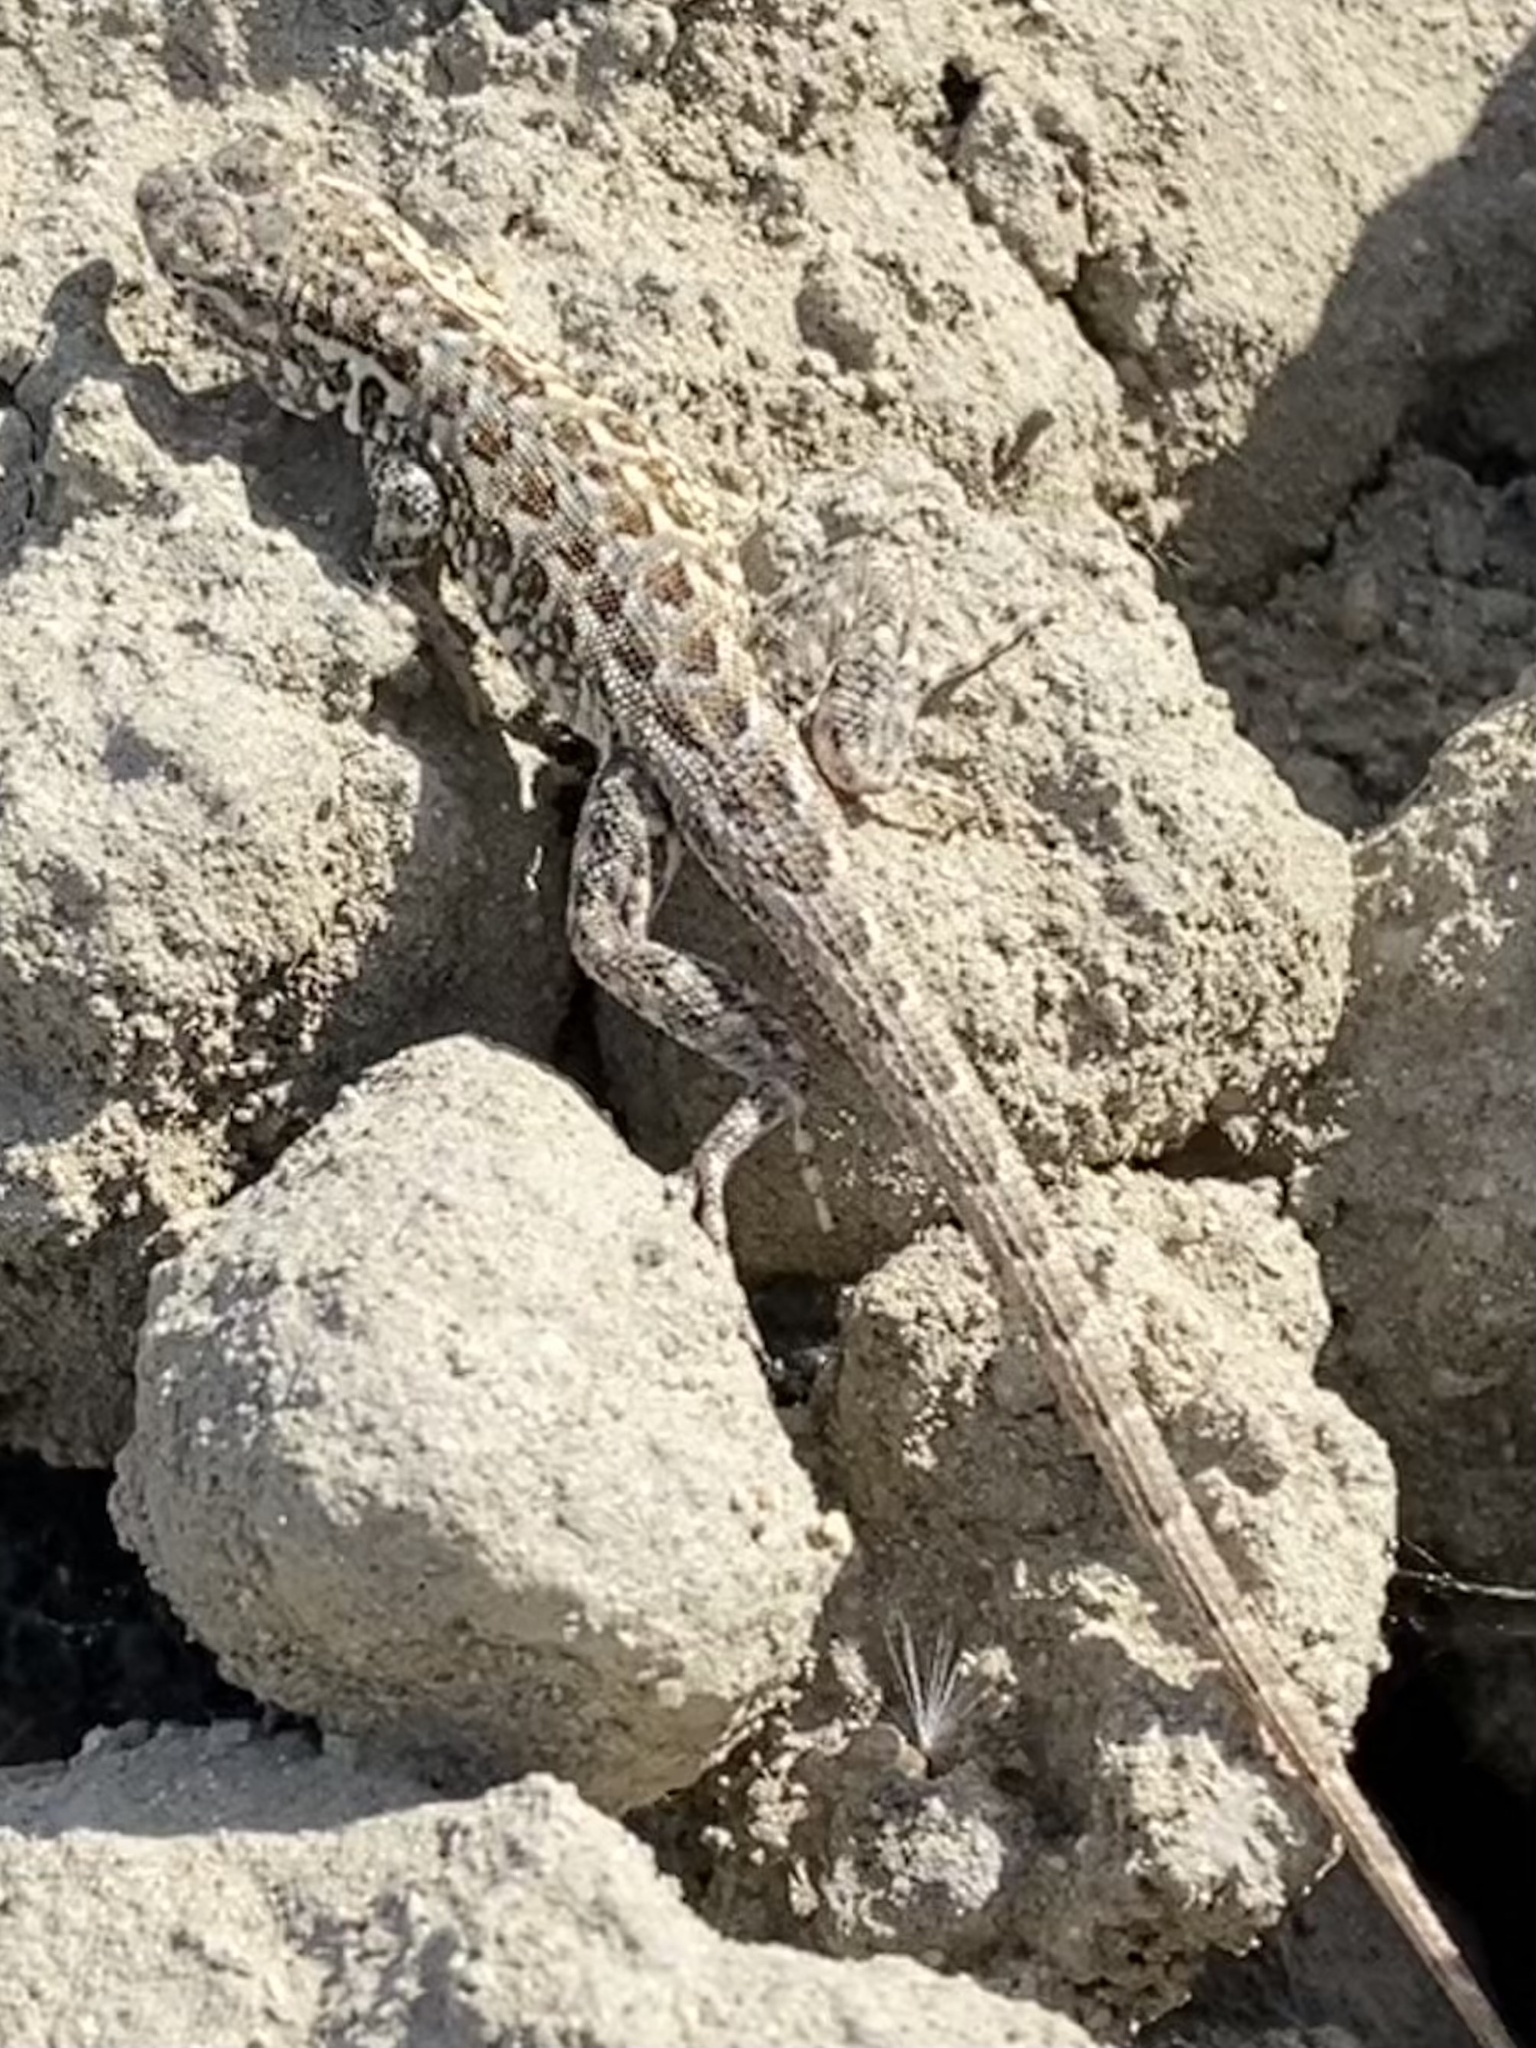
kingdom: Animalia
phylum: Chordata
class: Squamata
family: Phrynosomatidae
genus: Uta
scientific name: Uta stansburiana
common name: Side-blotched lizard
